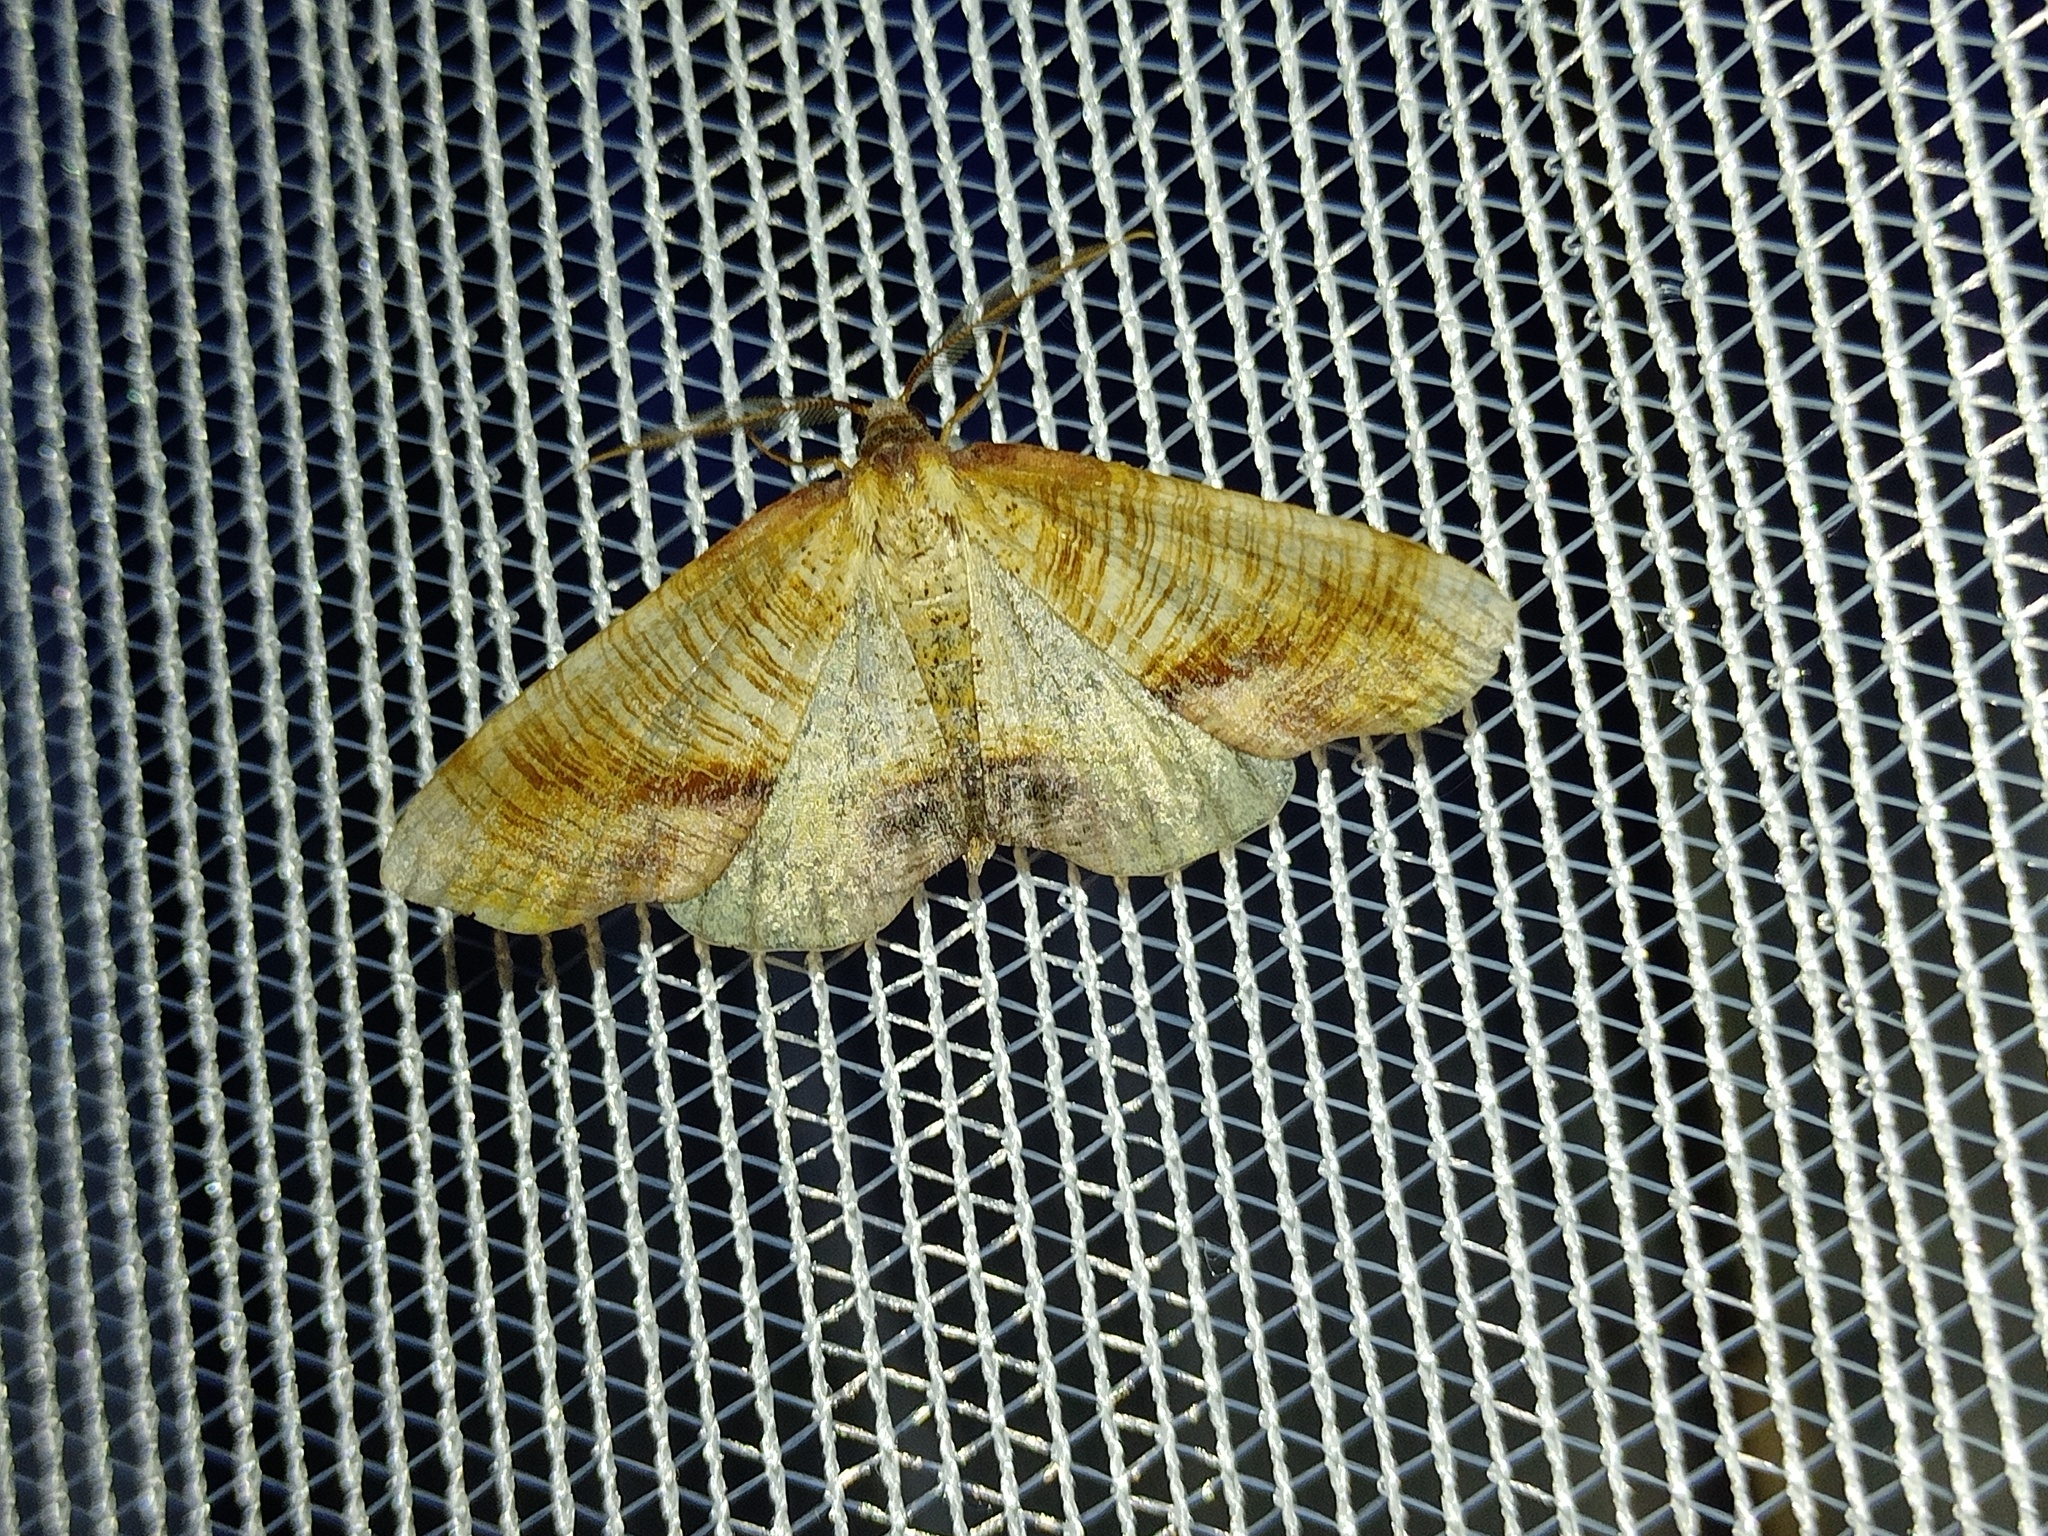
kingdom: Animalia
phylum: Arthropoda
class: Insecta
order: Lepidoptera
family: Geometridae
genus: Plagodis
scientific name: Plagodis dolabraria
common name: Scorched wing
